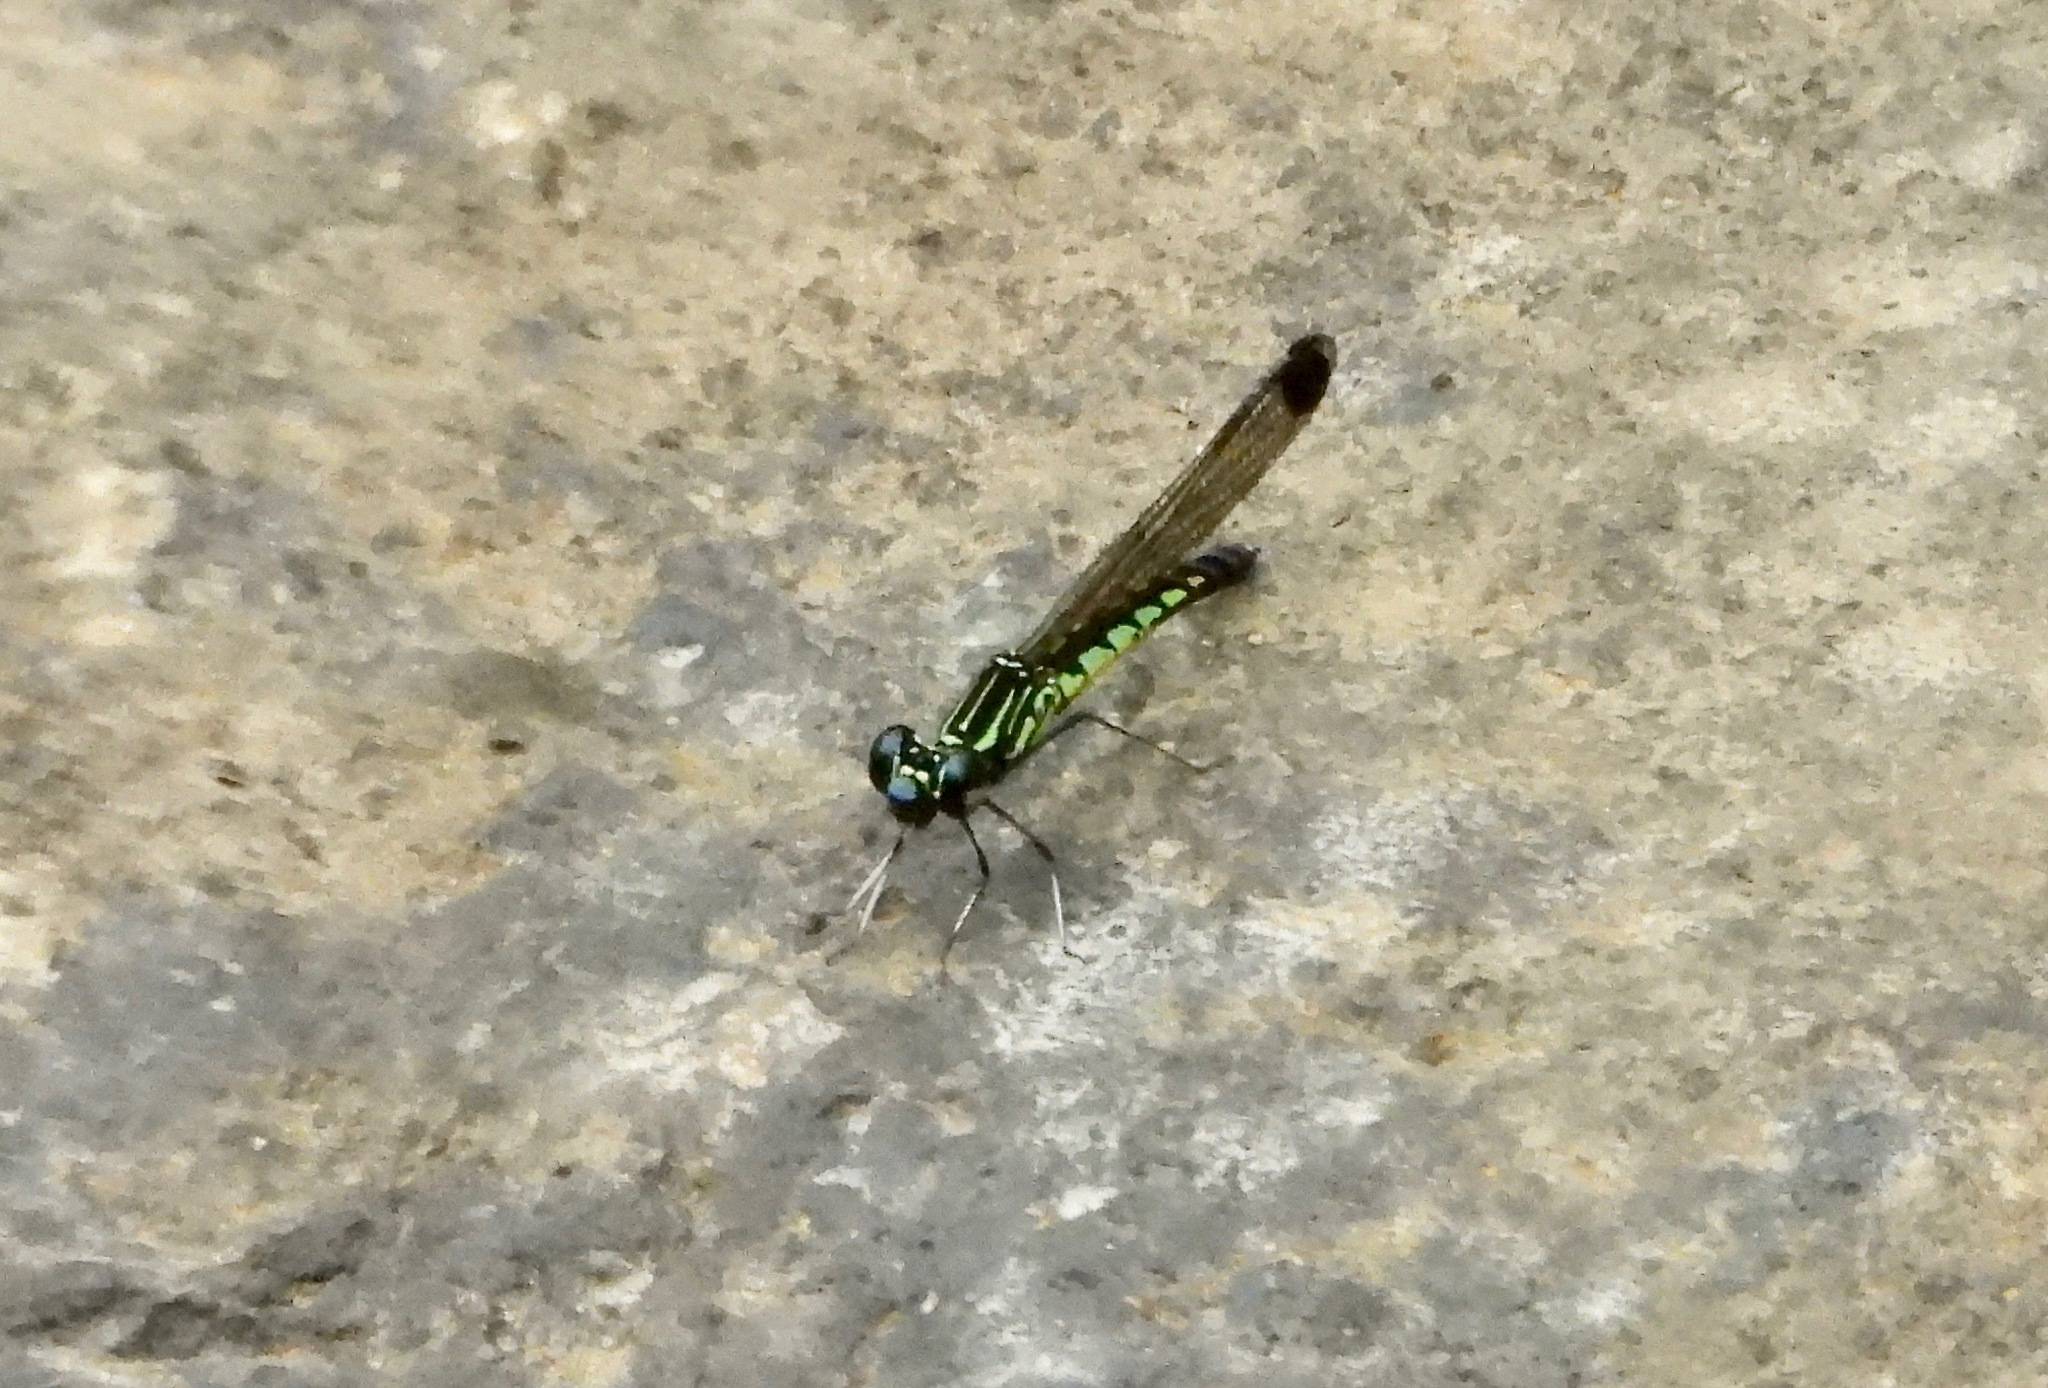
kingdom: Animalia
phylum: Arthropoda
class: Insecta
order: Odonata
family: Chlorocyphidae
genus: Libellago
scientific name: Libellago adami
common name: Adam’s gem
